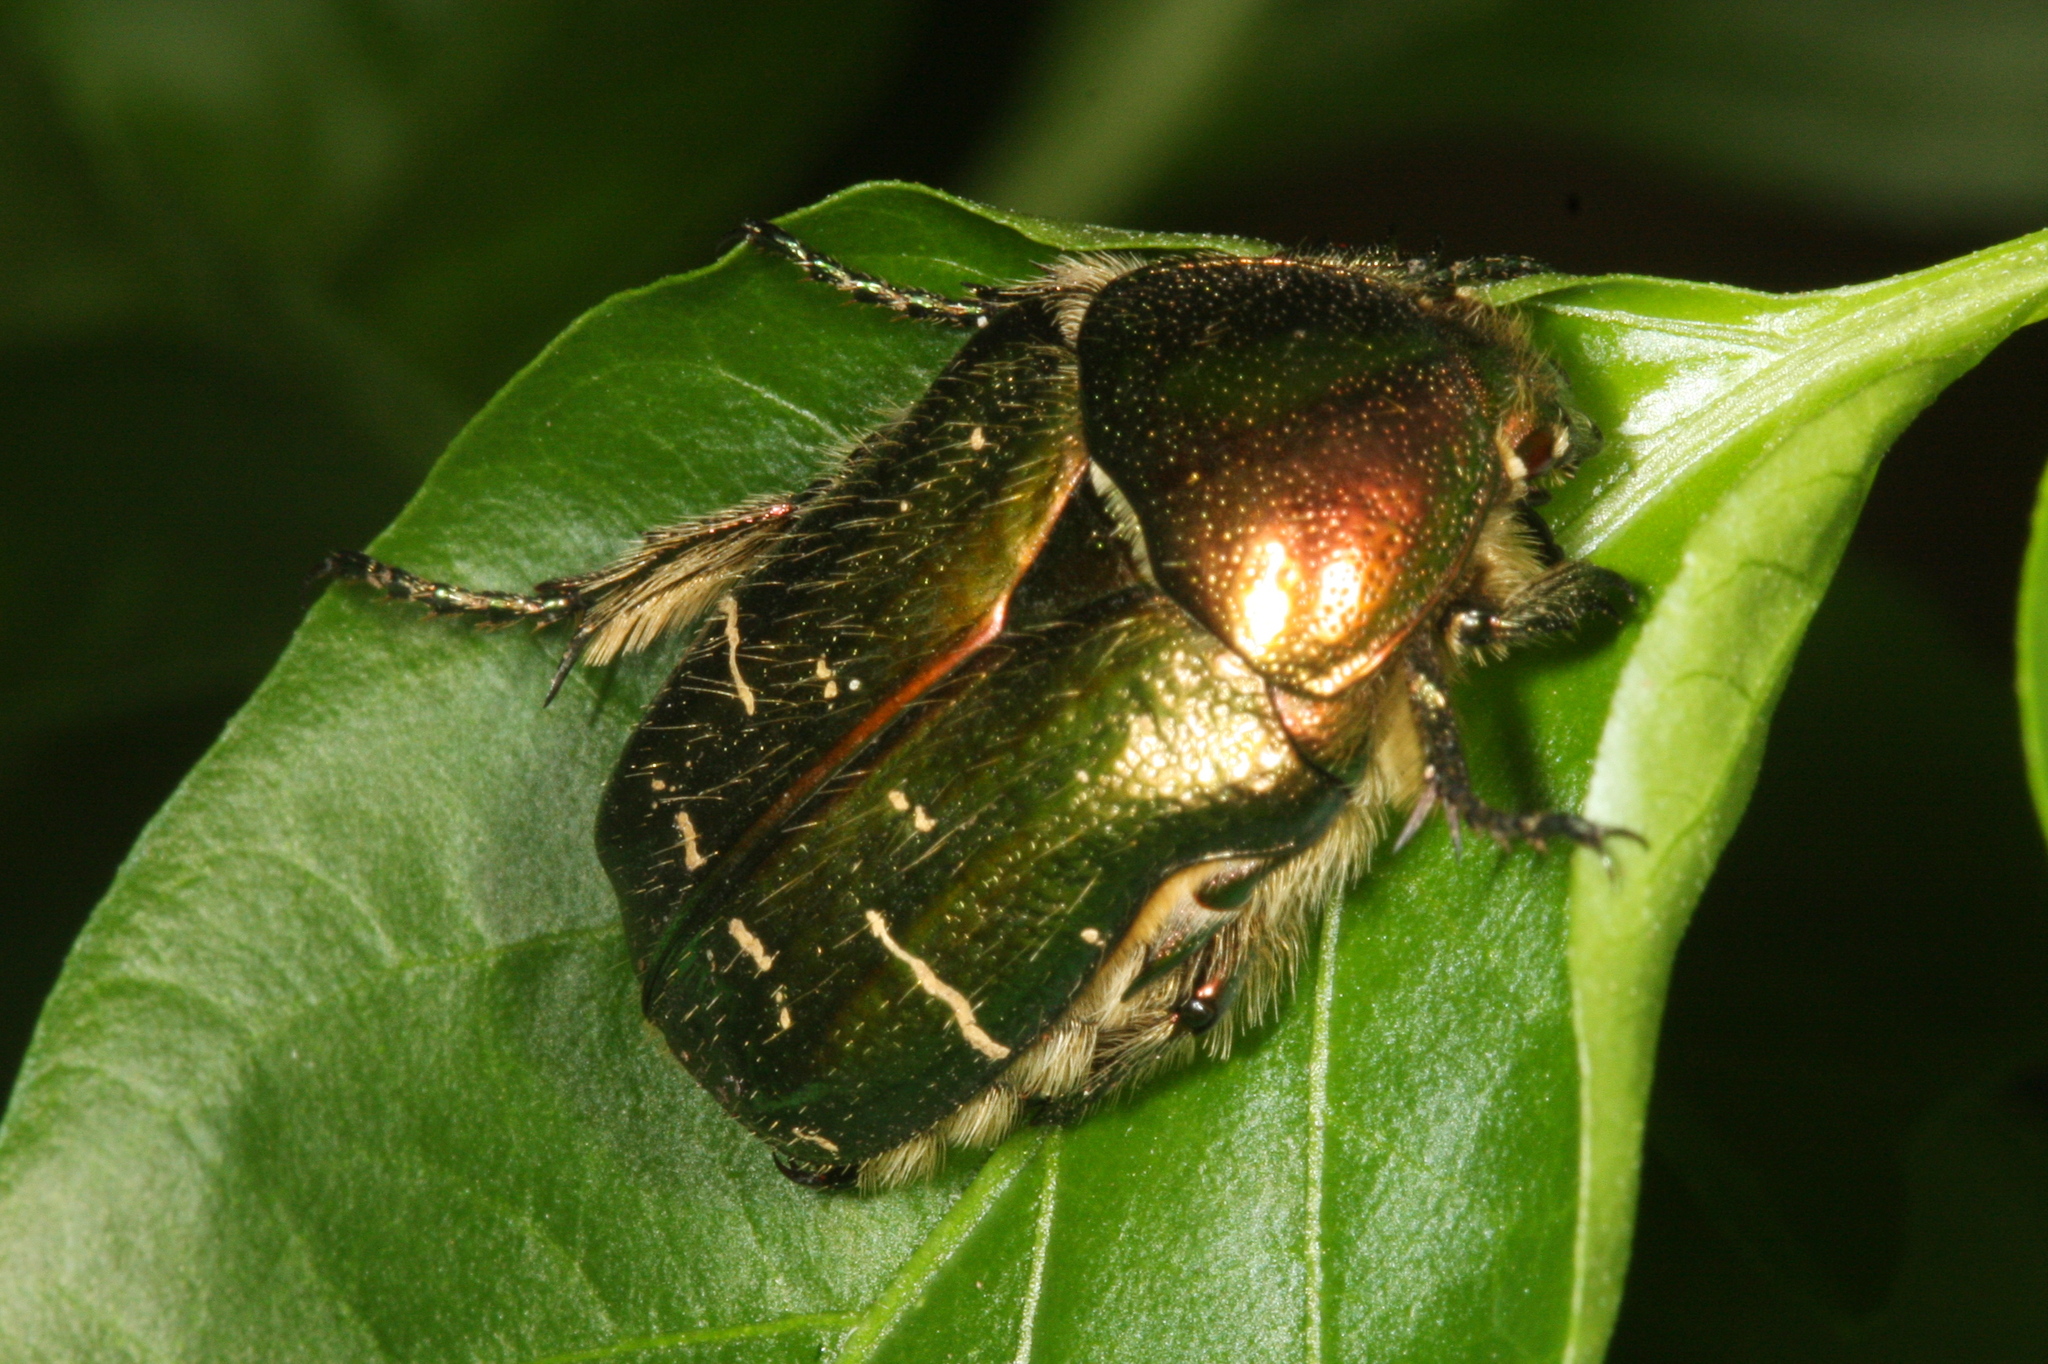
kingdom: Animalia
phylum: Arthropoda
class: Insecta
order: Coleoptera
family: Scarabaeidae
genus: Cetonia
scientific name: Cetonia aurata
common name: Rose chafer
